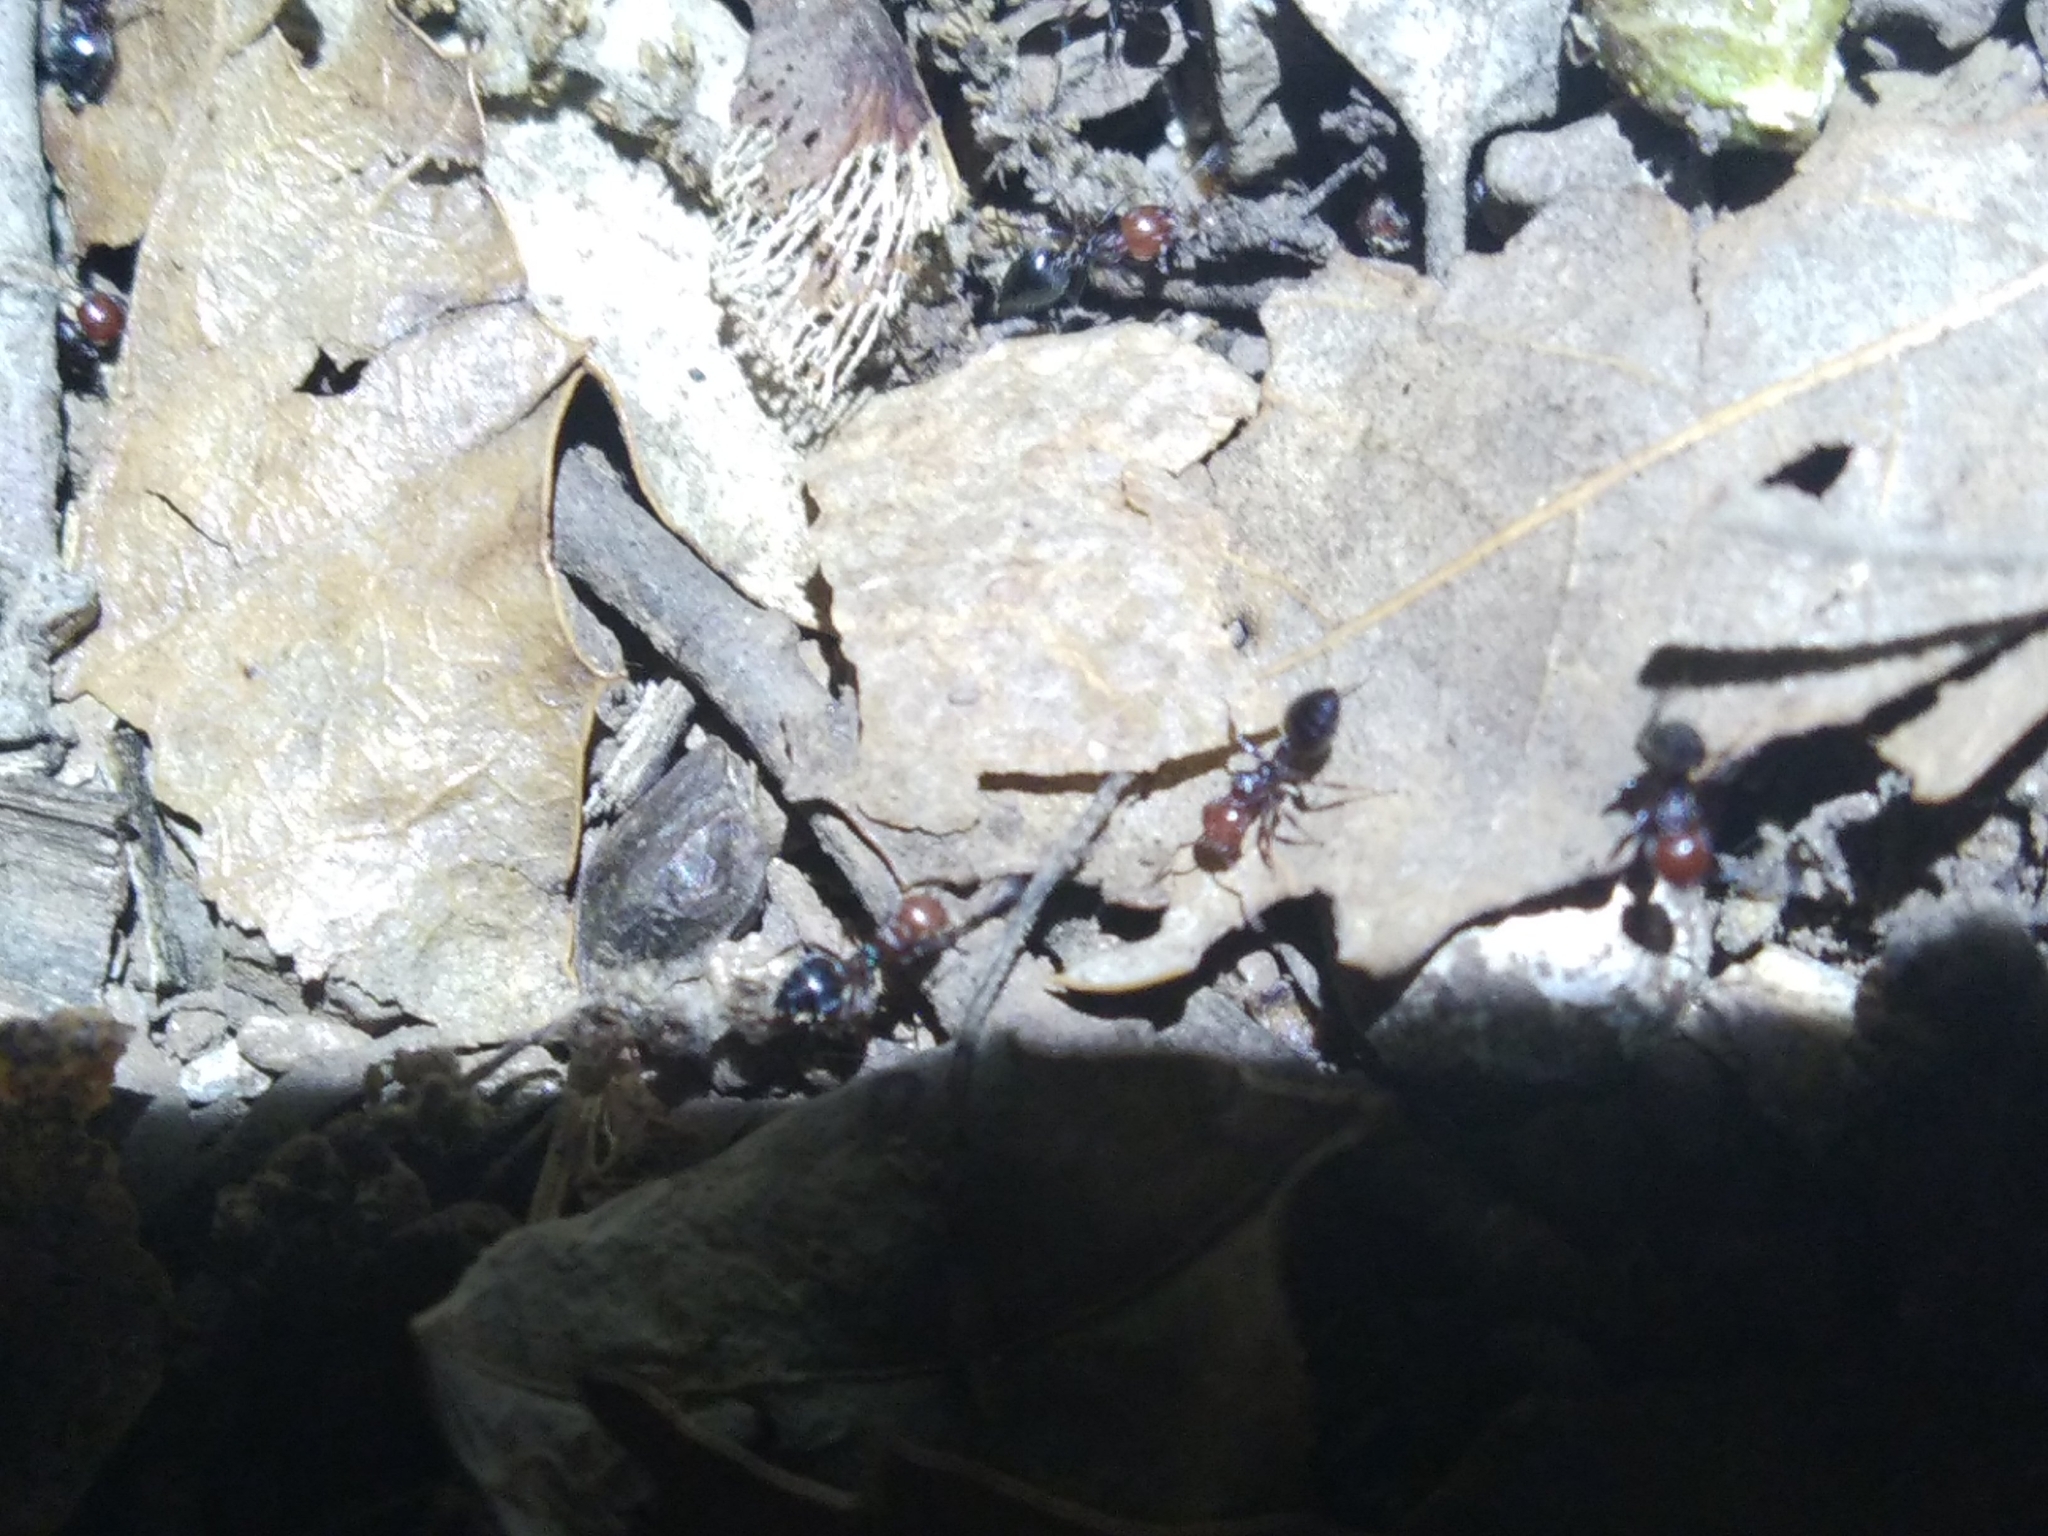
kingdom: Animalia
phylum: Arthropoda
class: Insecta
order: Hymenoptera
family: Formicidae
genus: Crematogaster
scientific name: Crematogaster scutellaris
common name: Fourmi du liège
